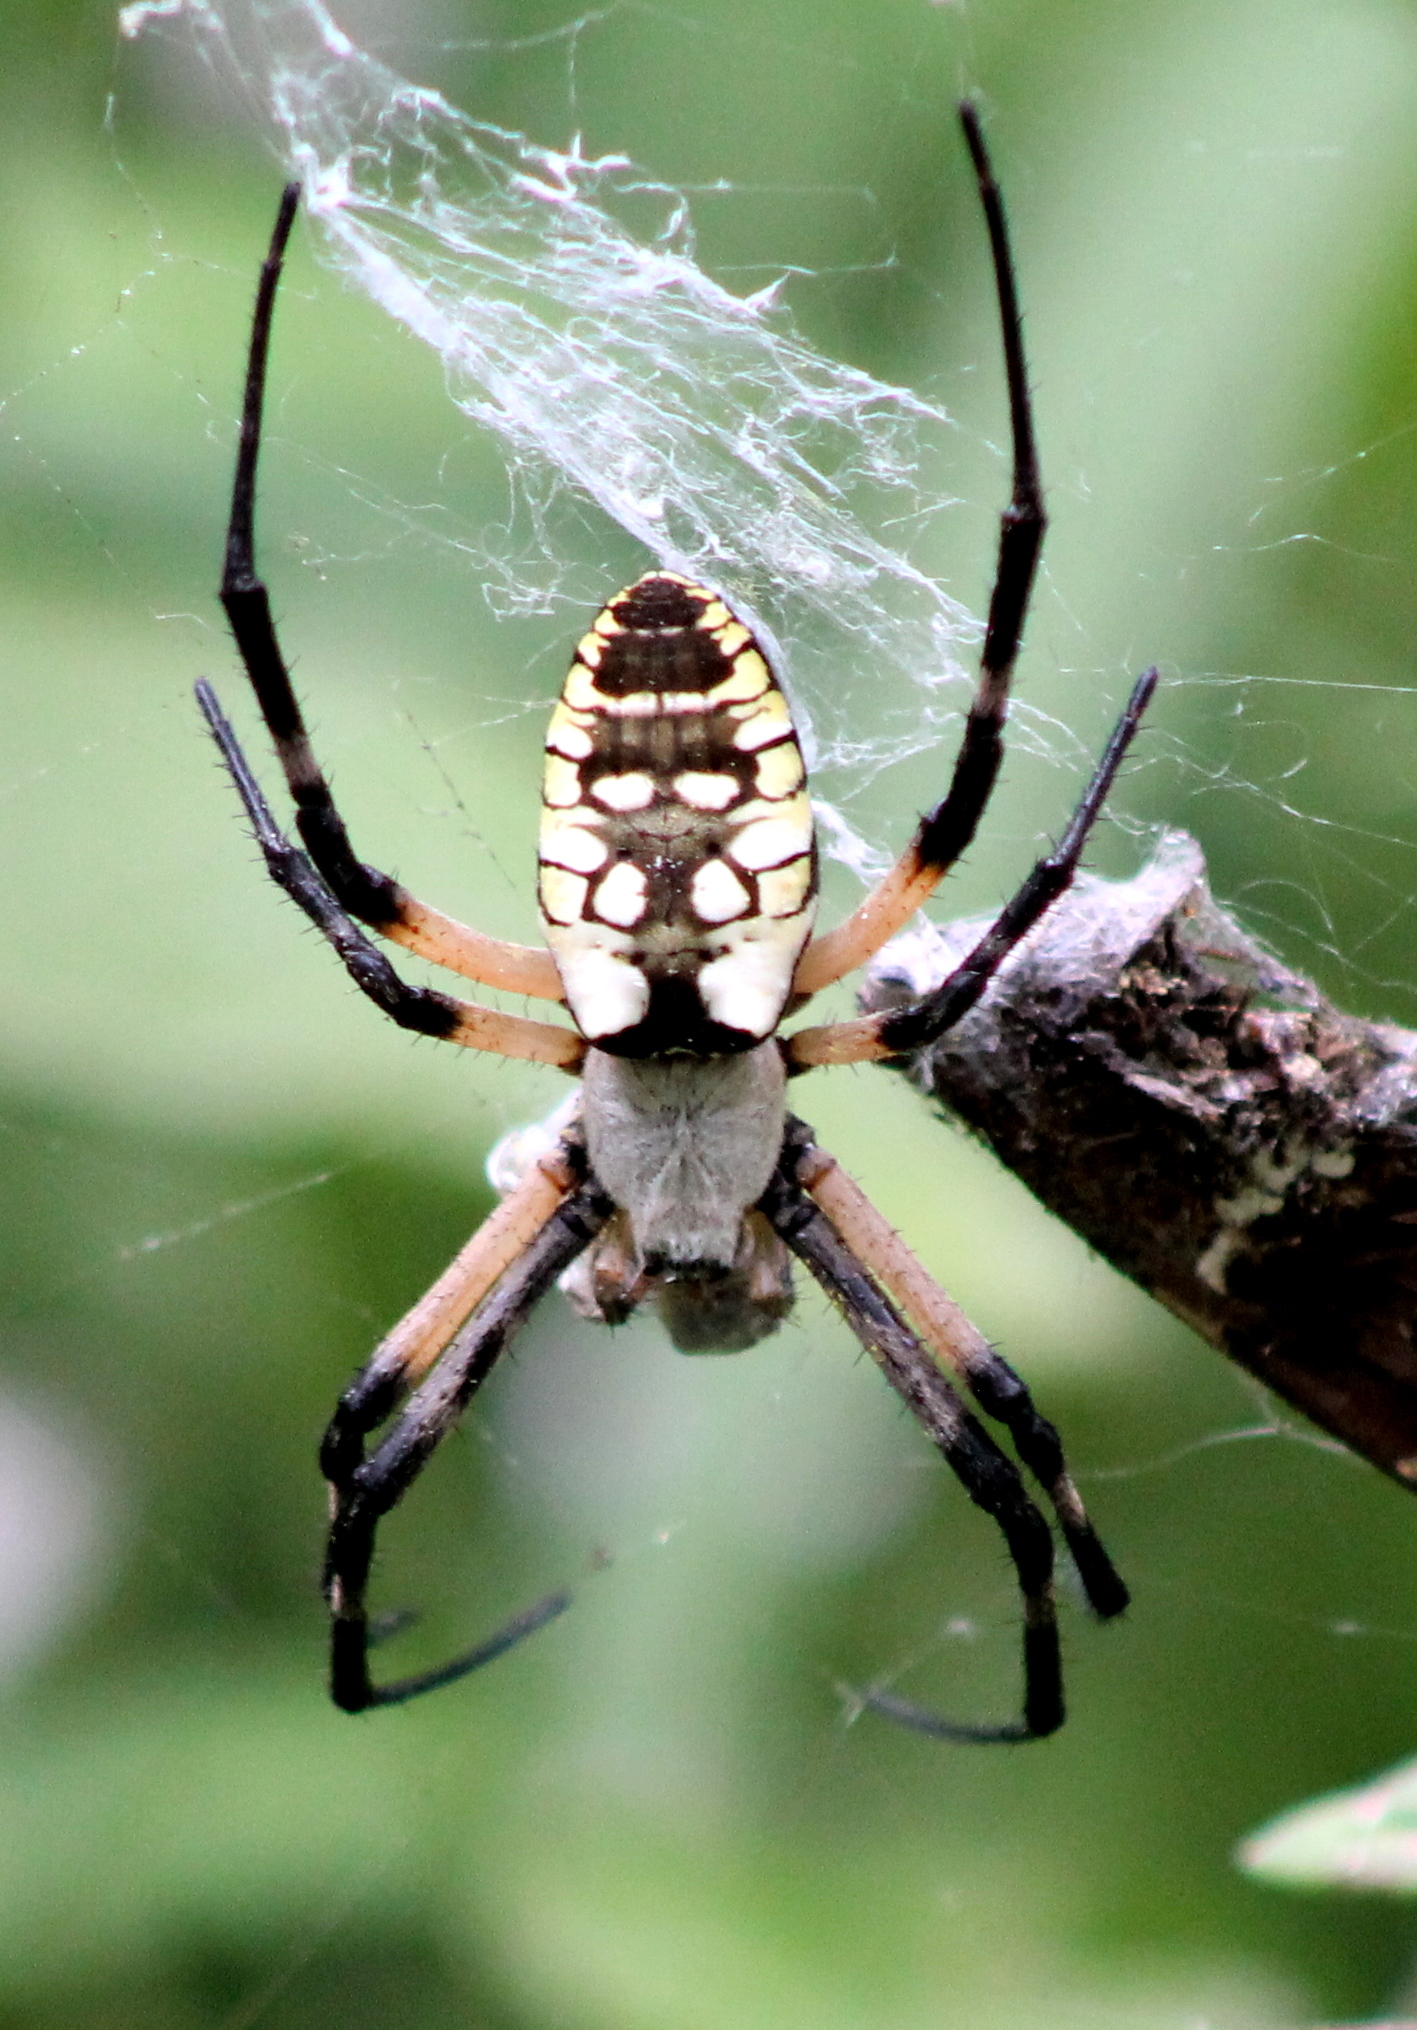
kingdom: Animalia
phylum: Arthropoda
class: Arachnida
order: Araneae
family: Araneidae
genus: Argiope
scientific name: Argiope aurantia
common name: Orb weavers
